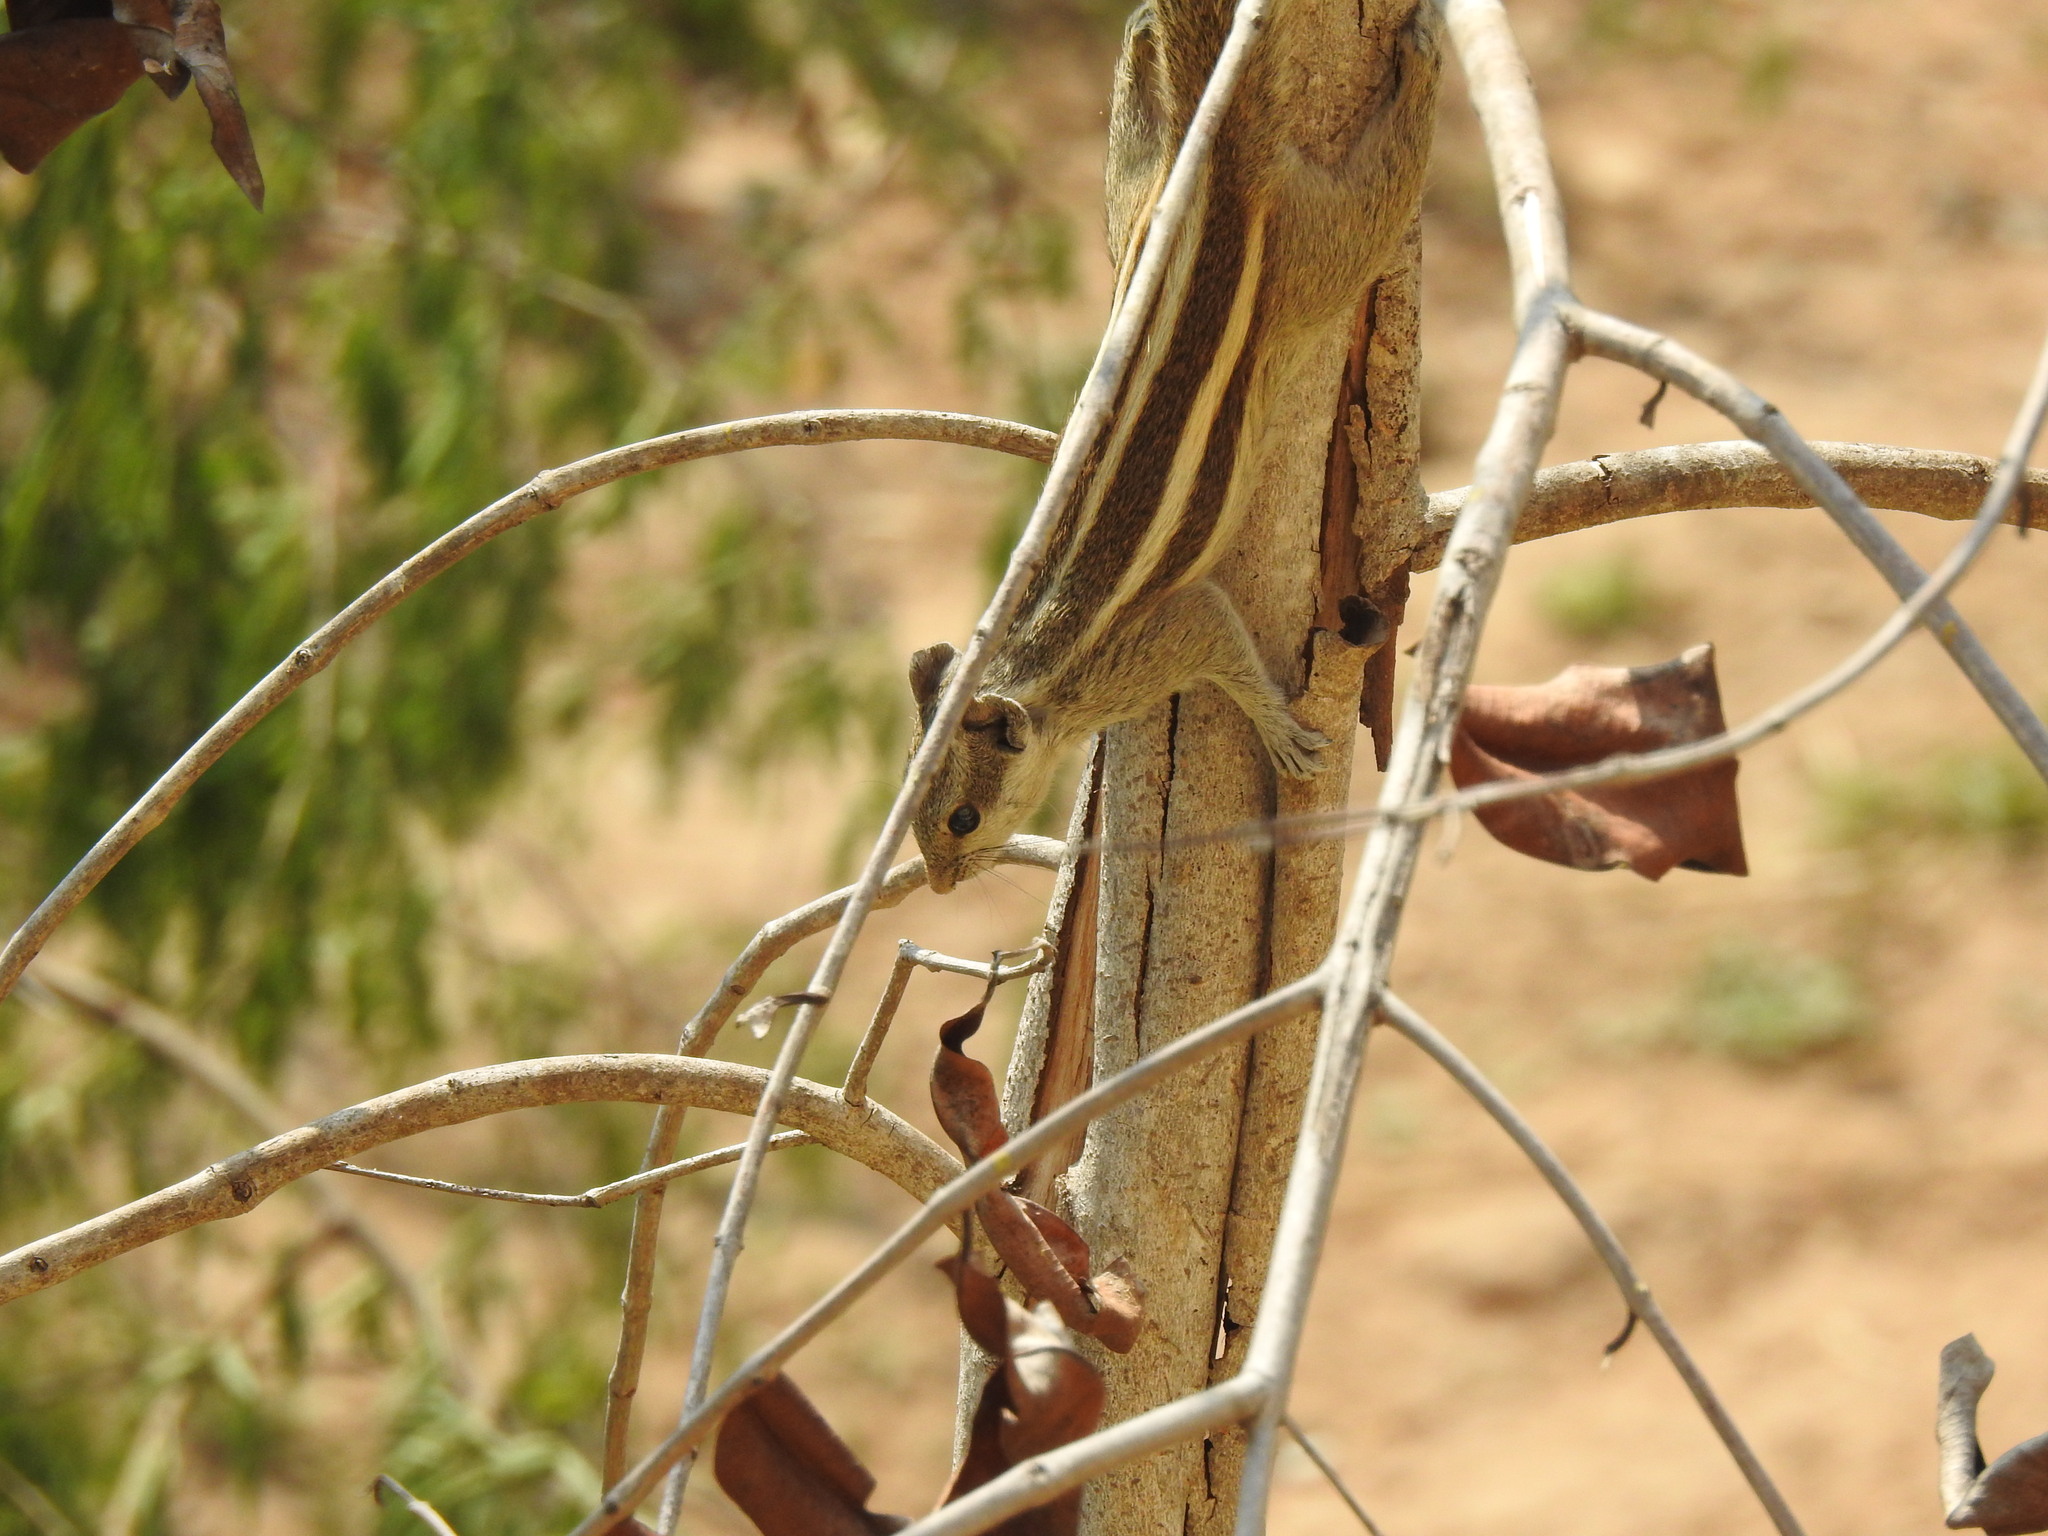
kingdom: Animalia
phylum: Chordata
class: Mammalia
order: Rodentia
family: Sciuridae
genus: Funambulus
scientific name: Funambulus pennantii
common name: Northern palm squirrel
